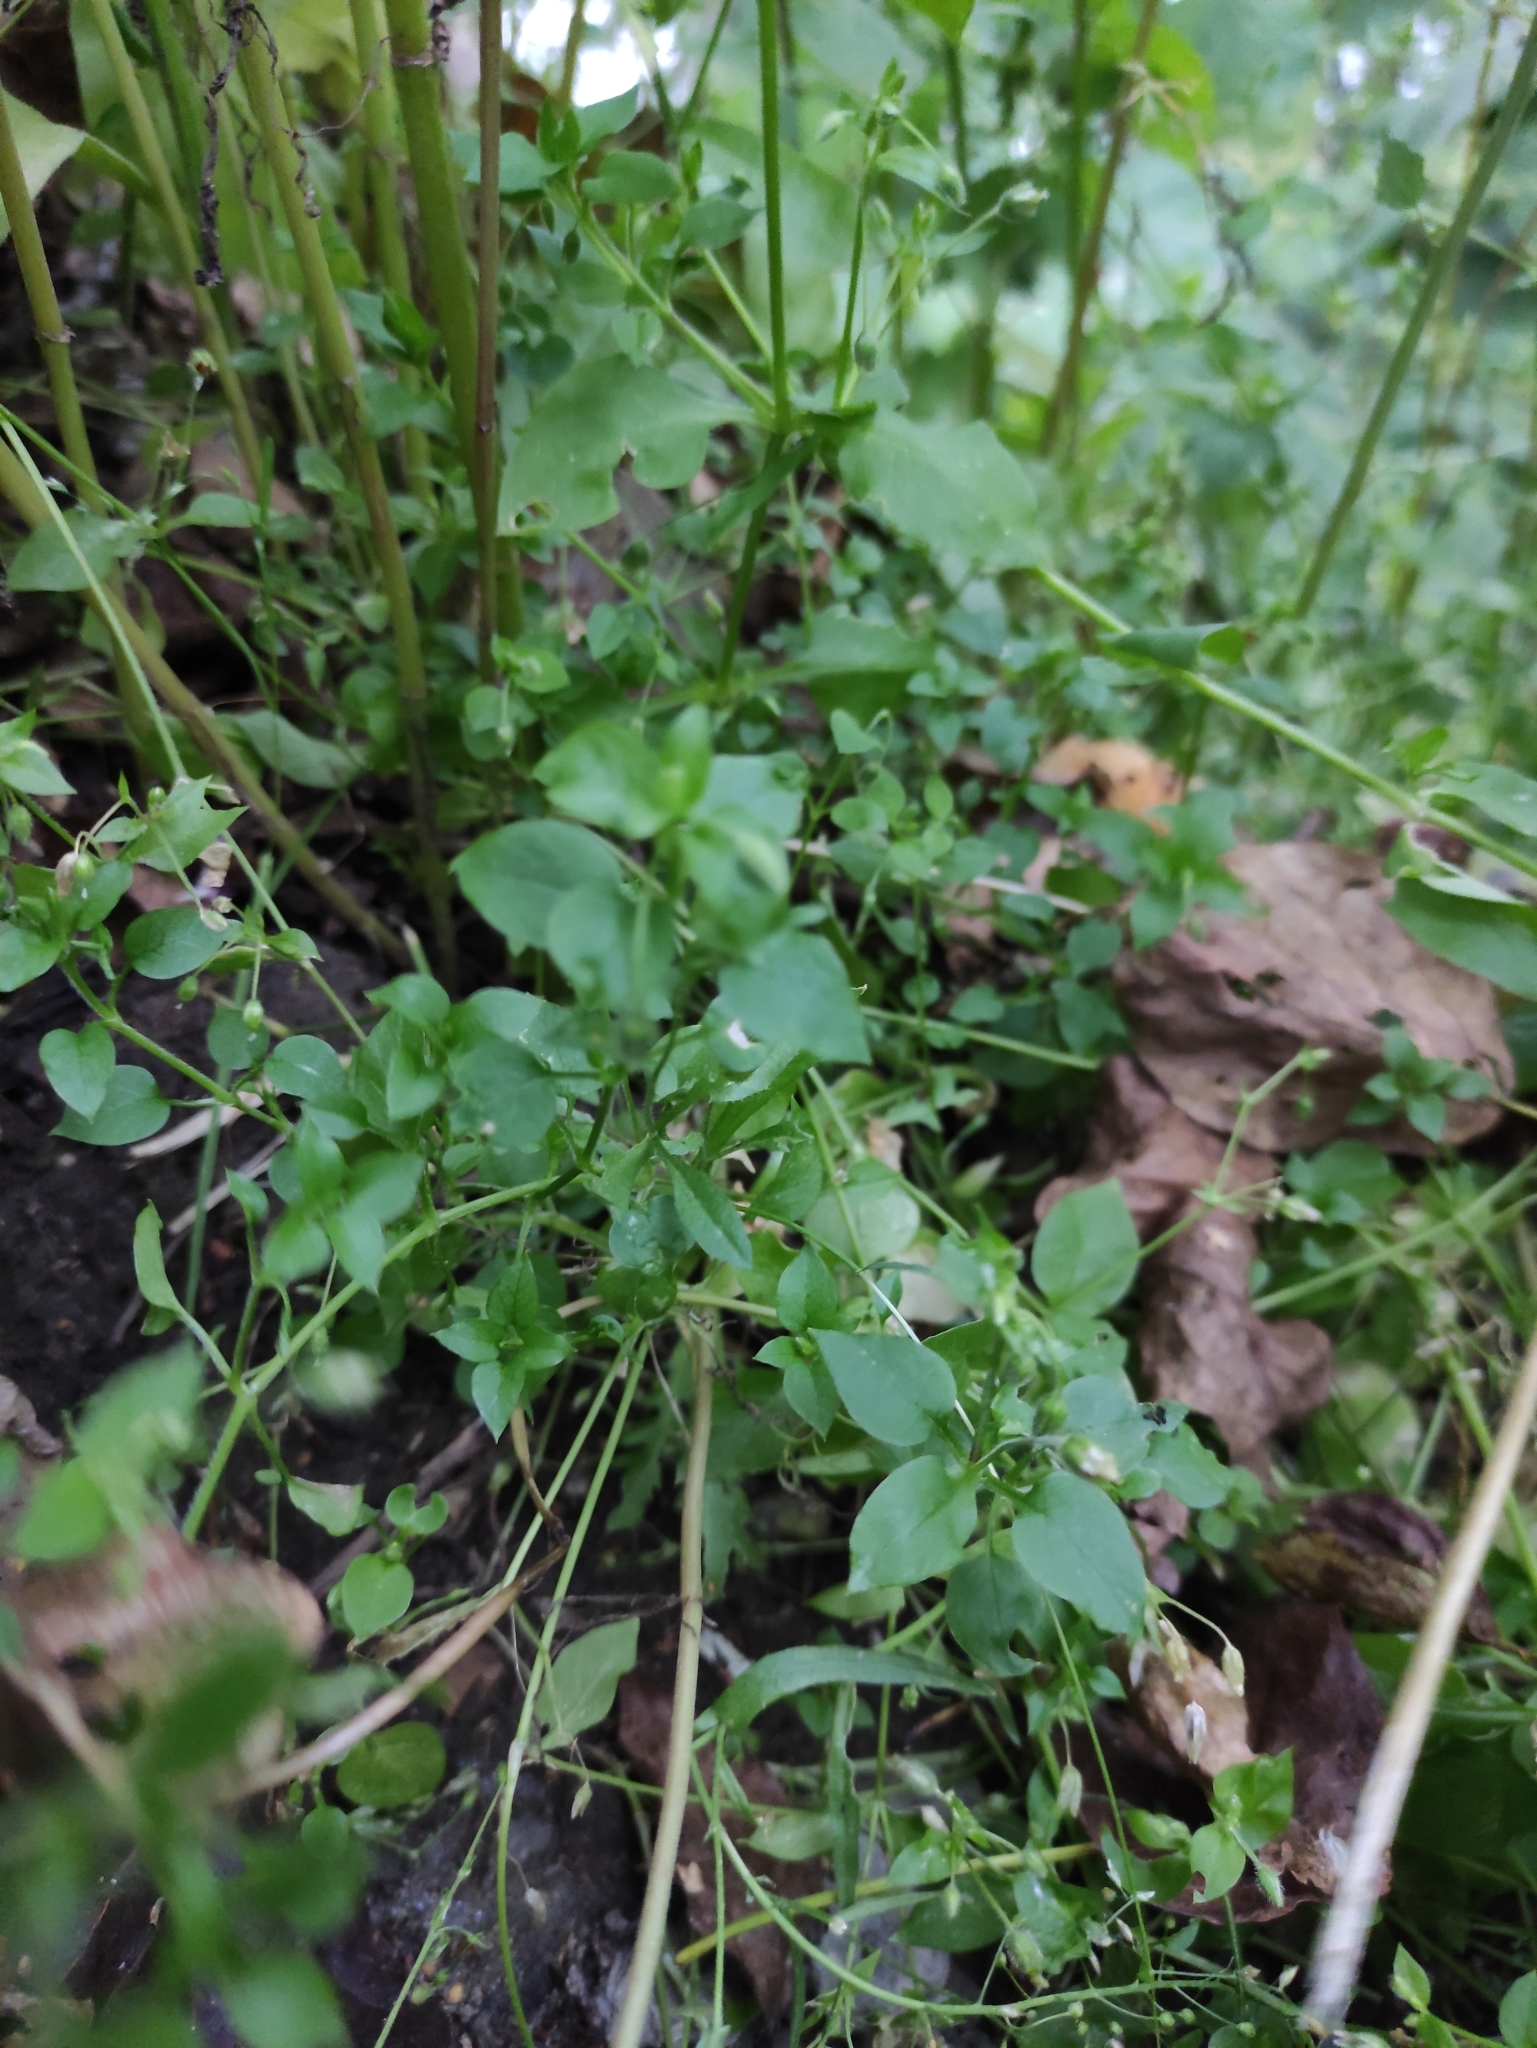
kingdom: Plantae
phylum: Tracheophyta
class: Magnoliopsida
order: Caryophyllales
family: Caryophyllaceae
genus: Stellaria
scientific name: Stellaria media
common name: Common chickweed
